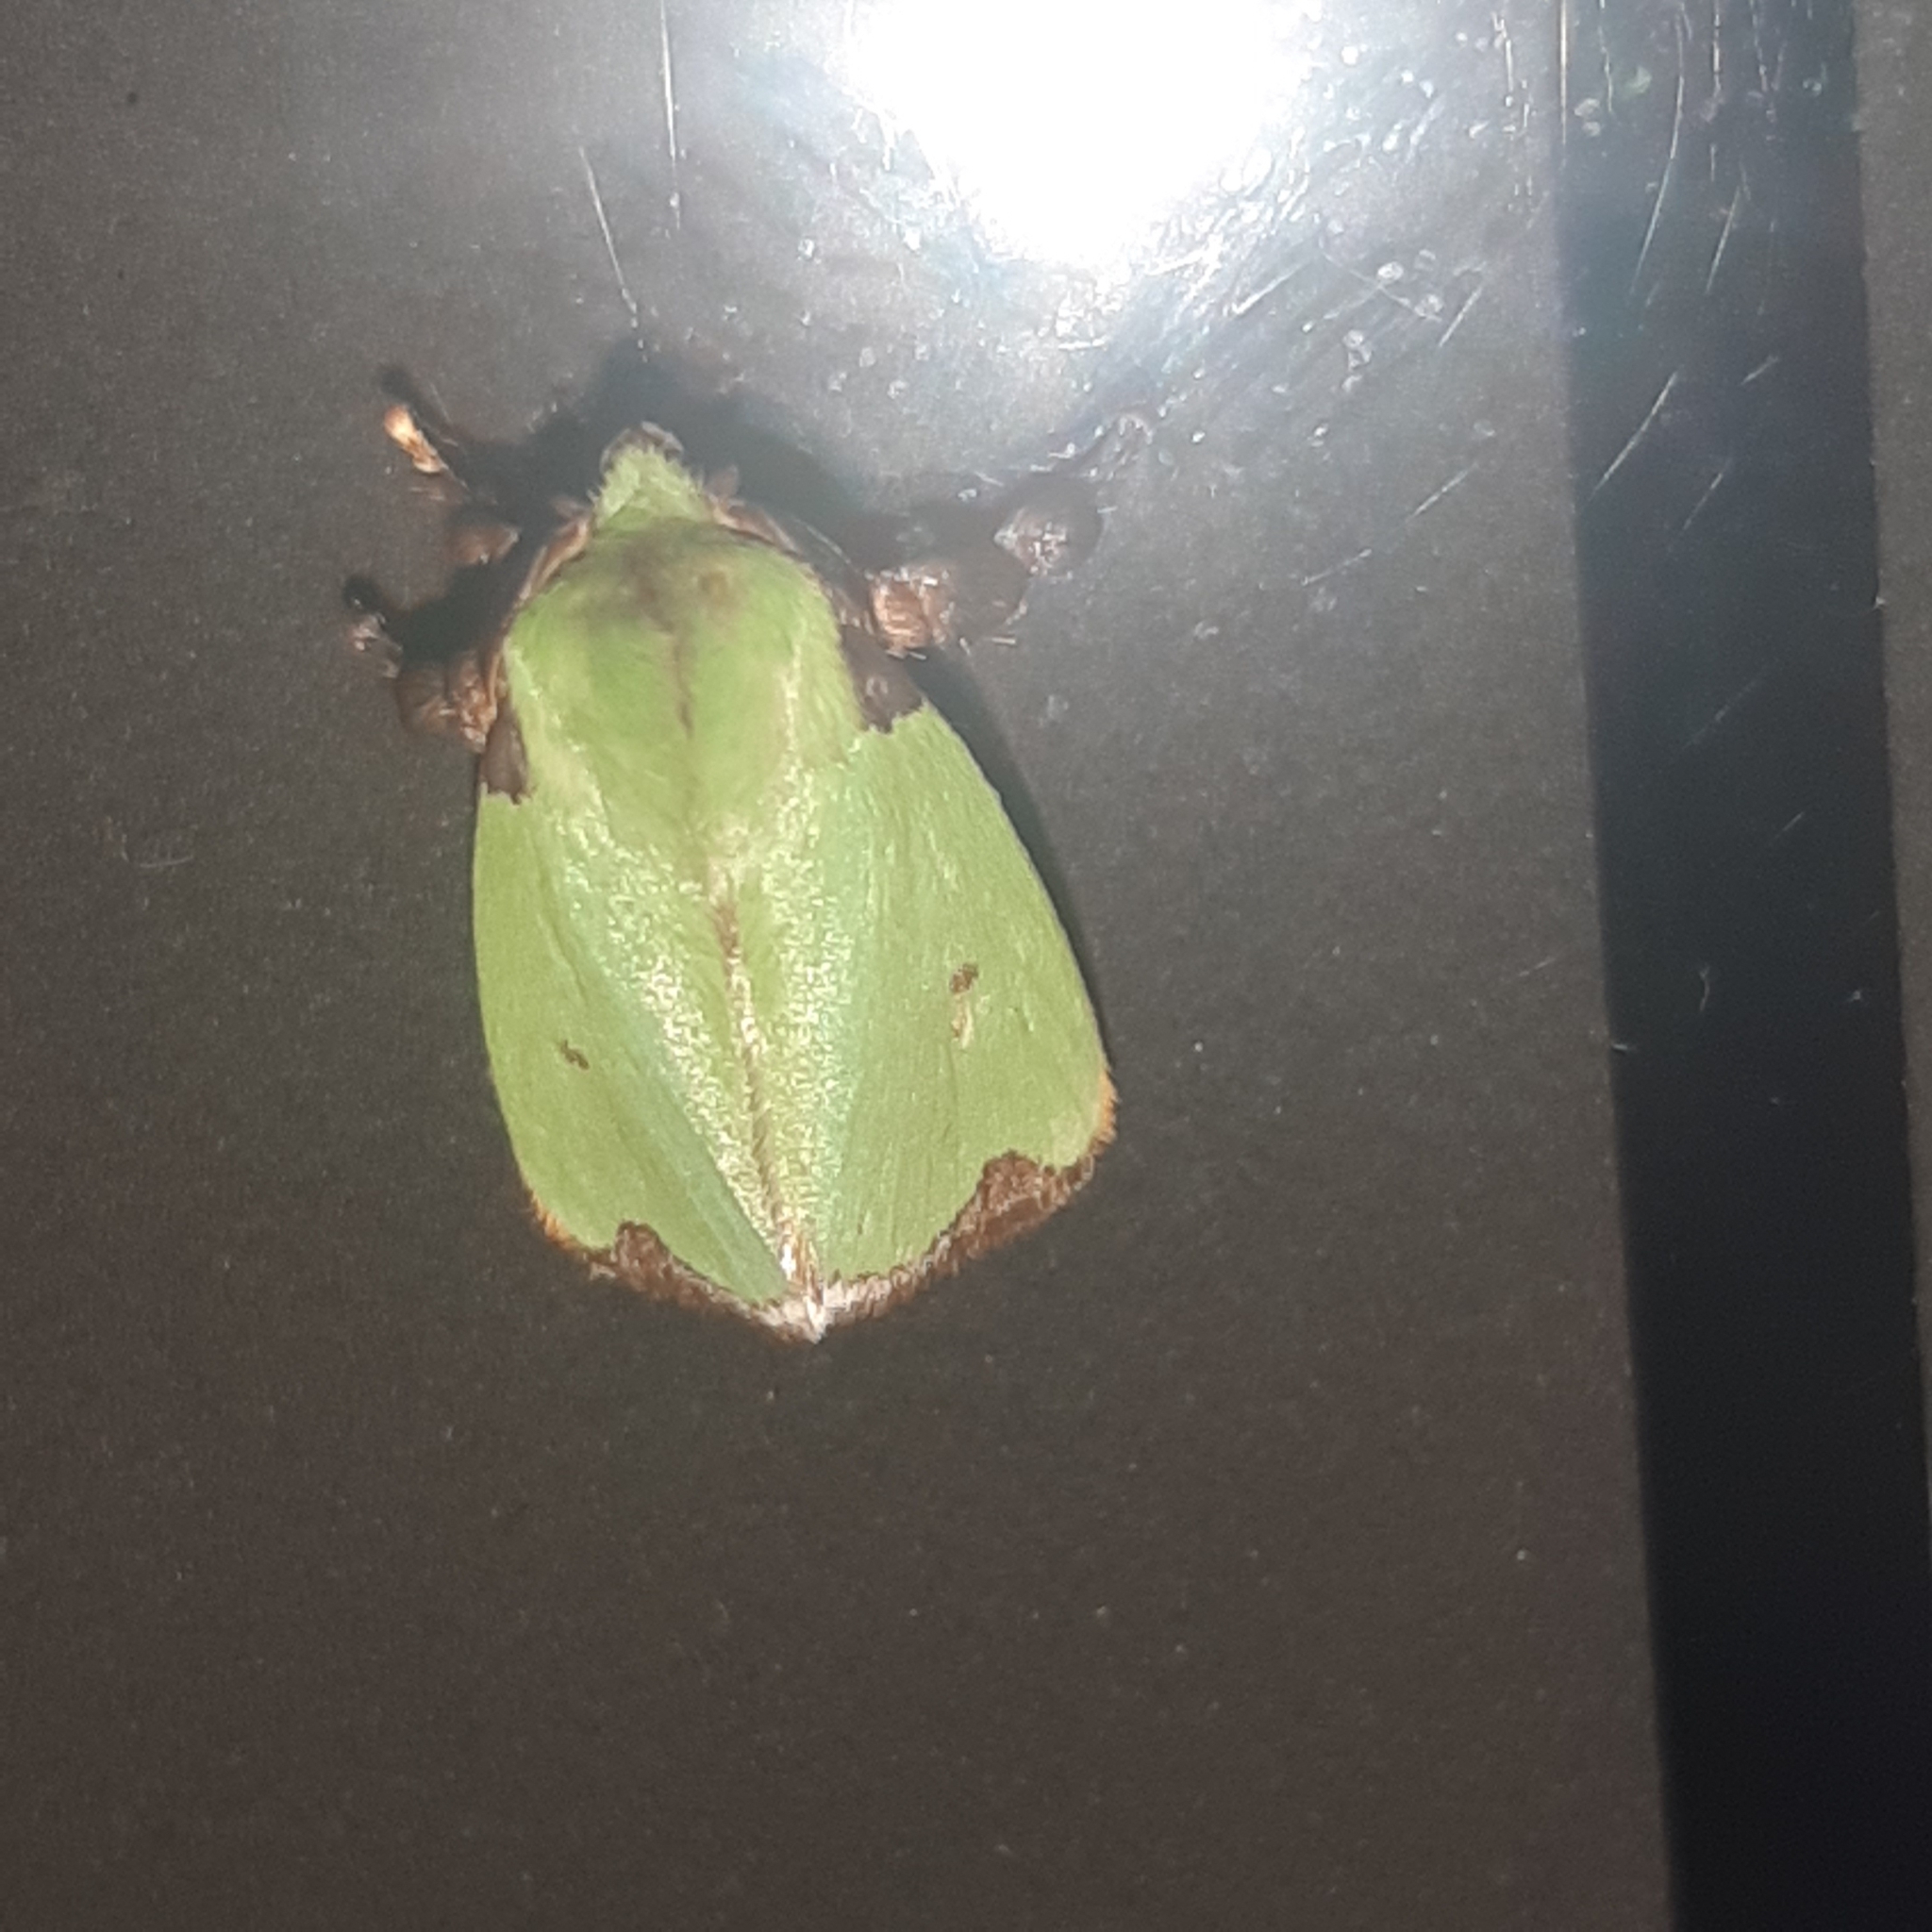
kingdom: Animalia
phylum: Arthropoda
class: Insecta
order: Lepidoptera
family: Limacodidae
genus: Parasa
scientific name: Parasa wellesca
